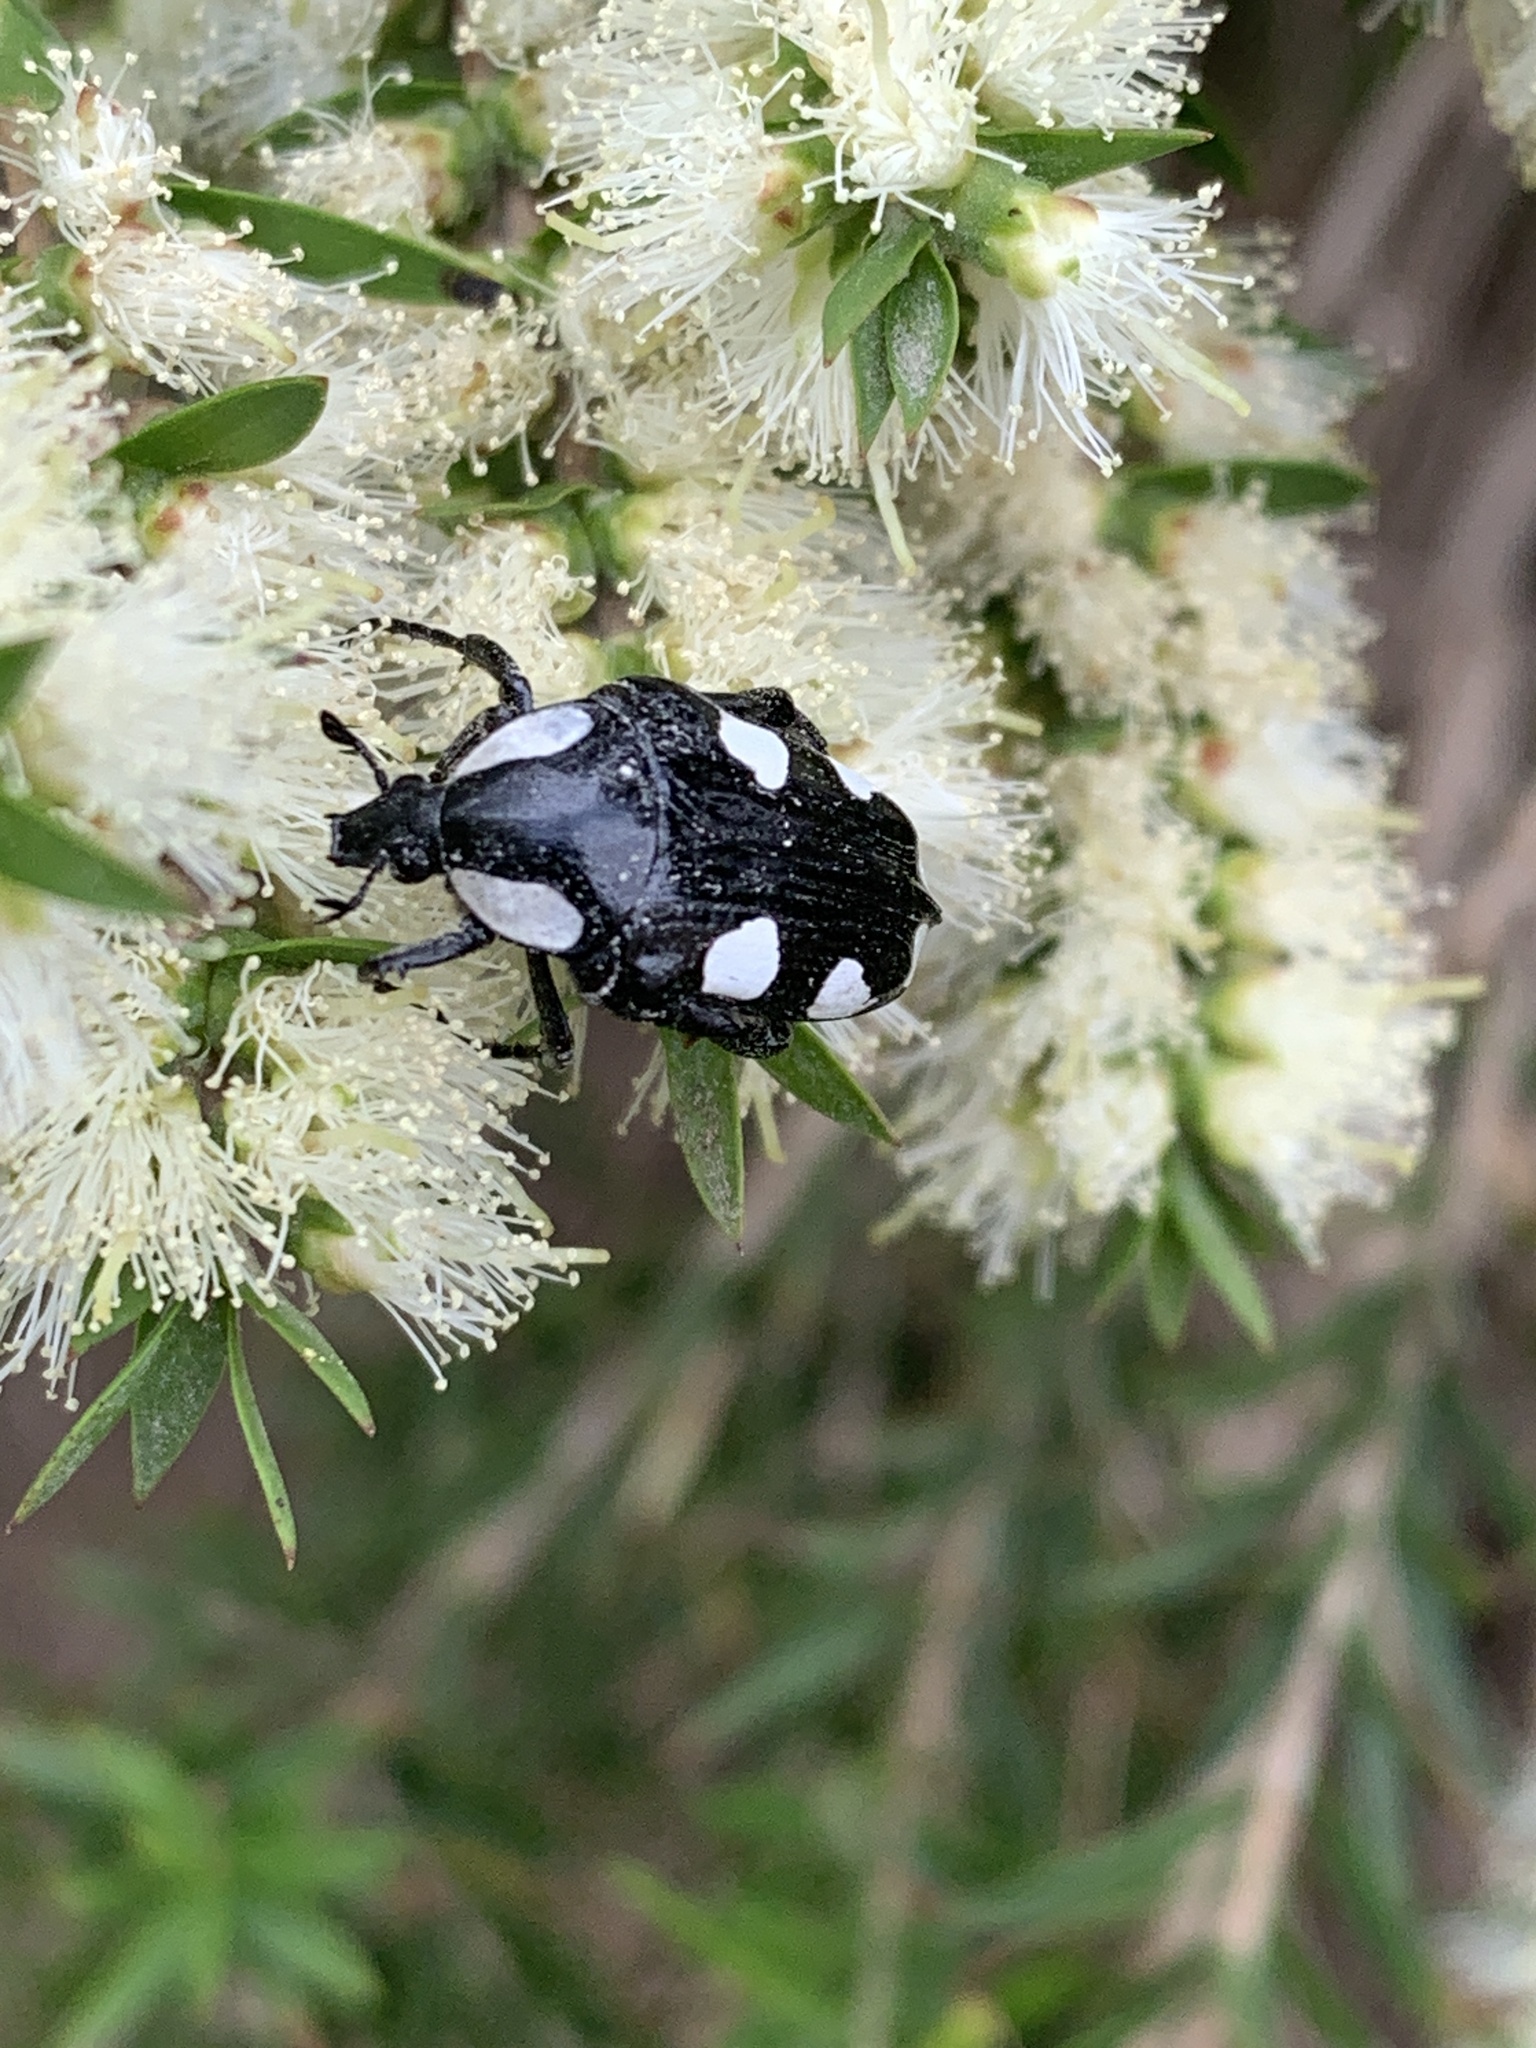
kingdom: Animalia
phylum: Arthropoda
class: Insecta
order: Coleoptera
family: Scarabaeidae
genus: Mausoleopsis
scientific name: Mausoleopsis amabilis
